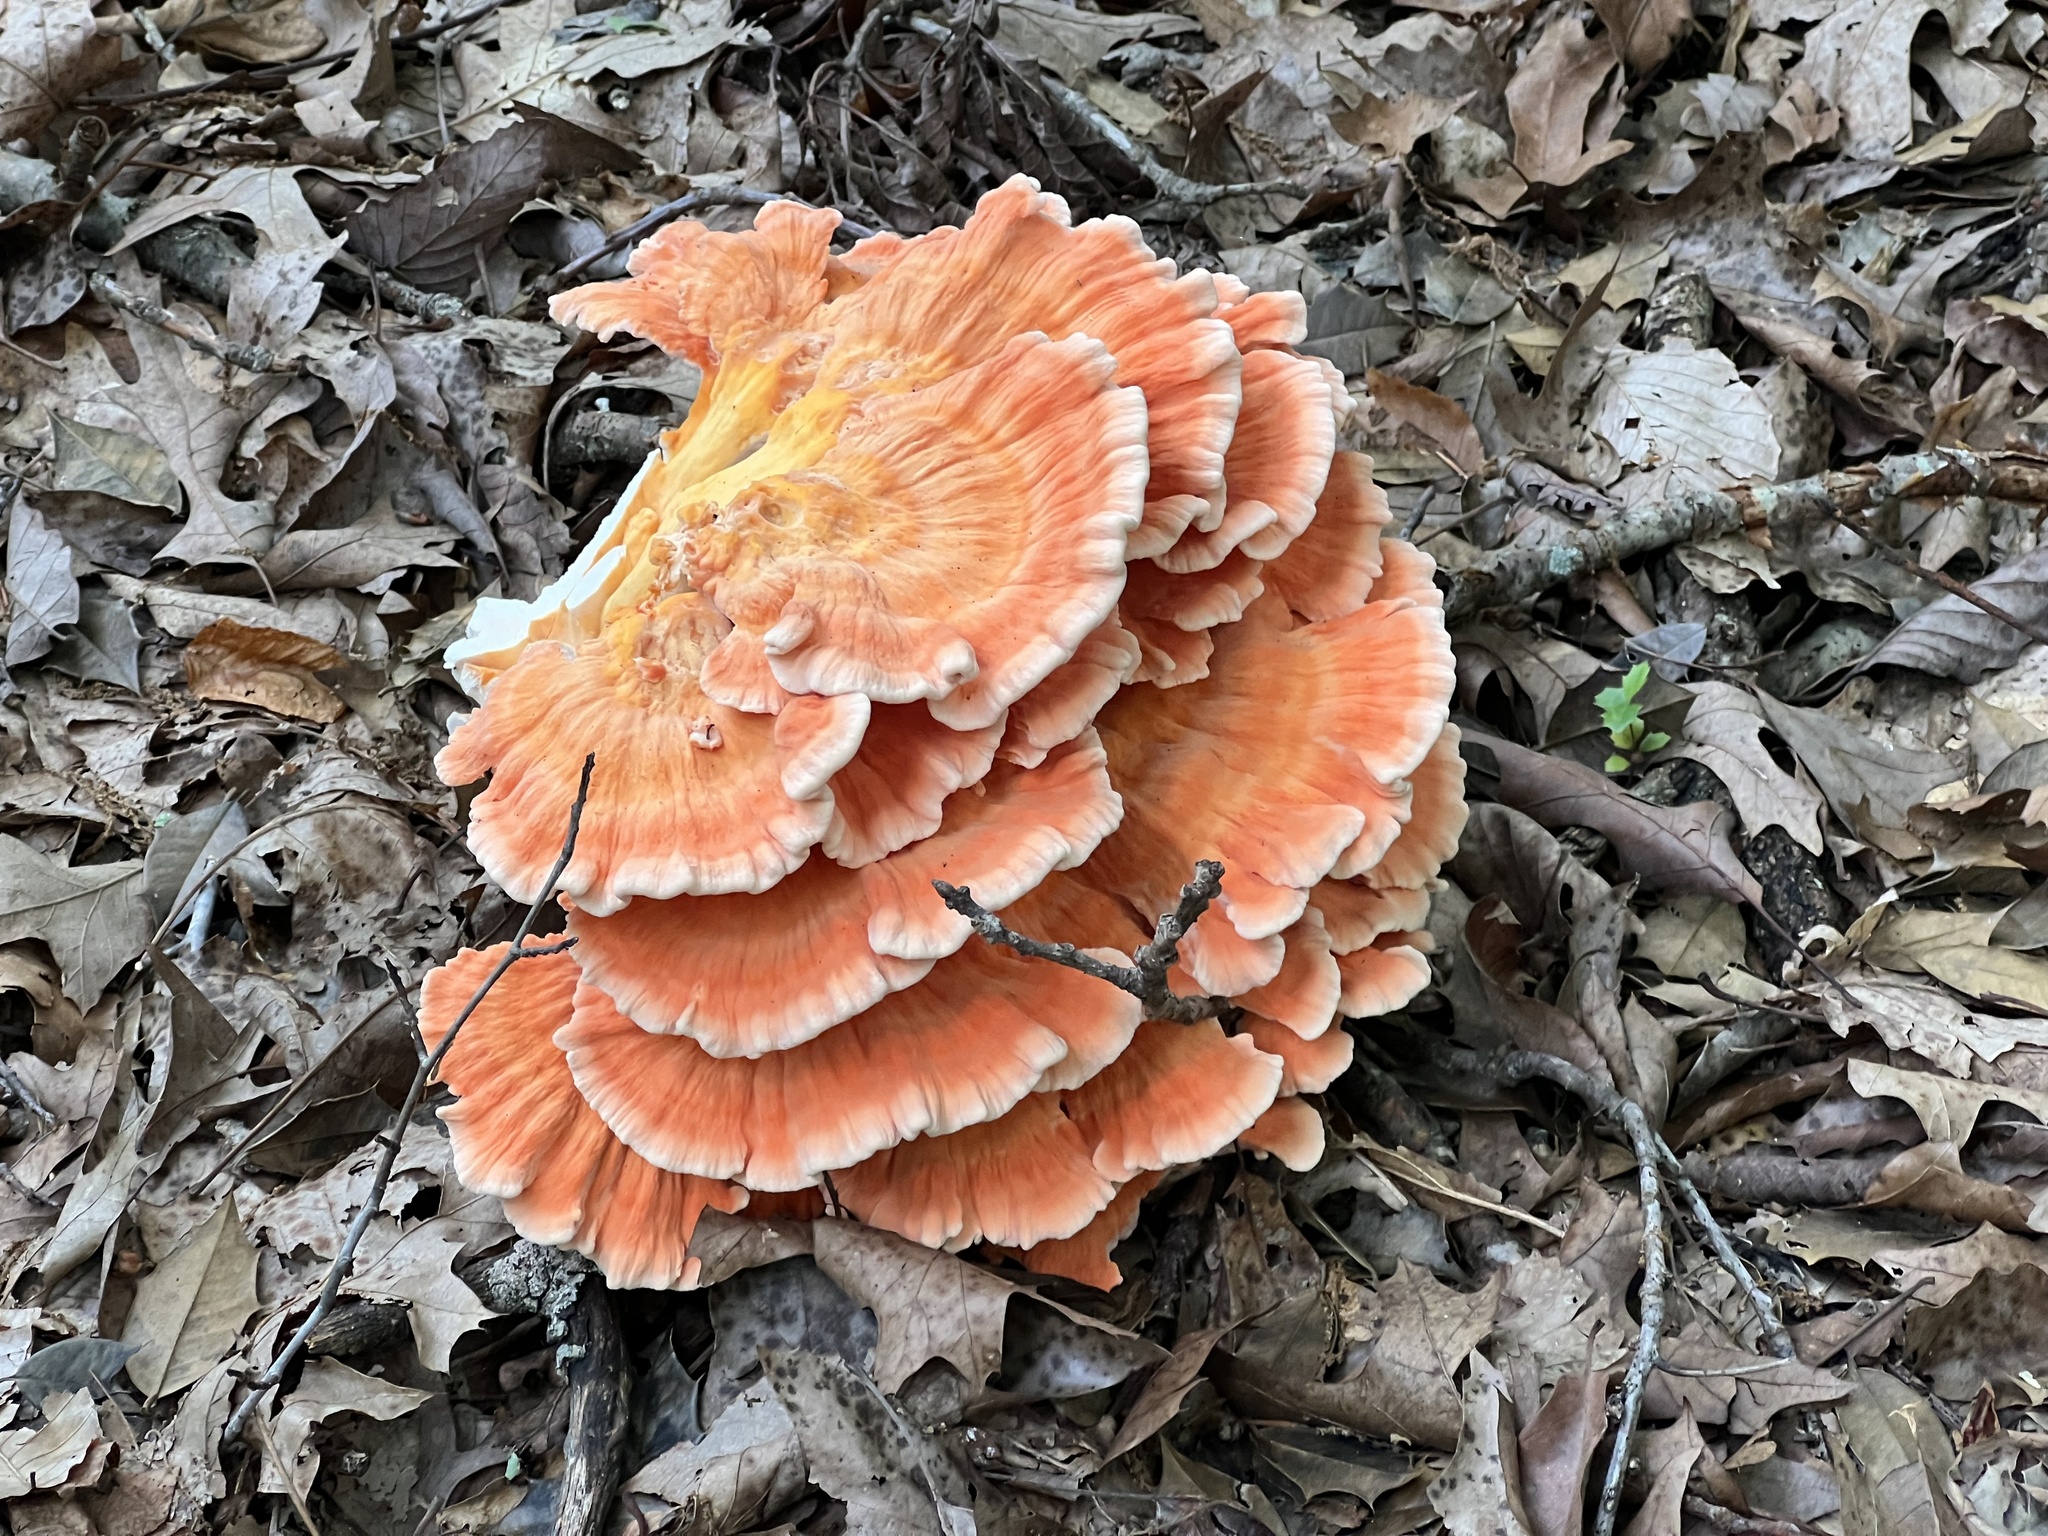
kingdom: Fungi
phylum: Basidiomycota
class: Agaricomycetes
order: Polyporales
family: Laetiporaceae
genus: Laetiporus
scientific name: Laetiporus sulphureus
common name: Chicken of the woods
